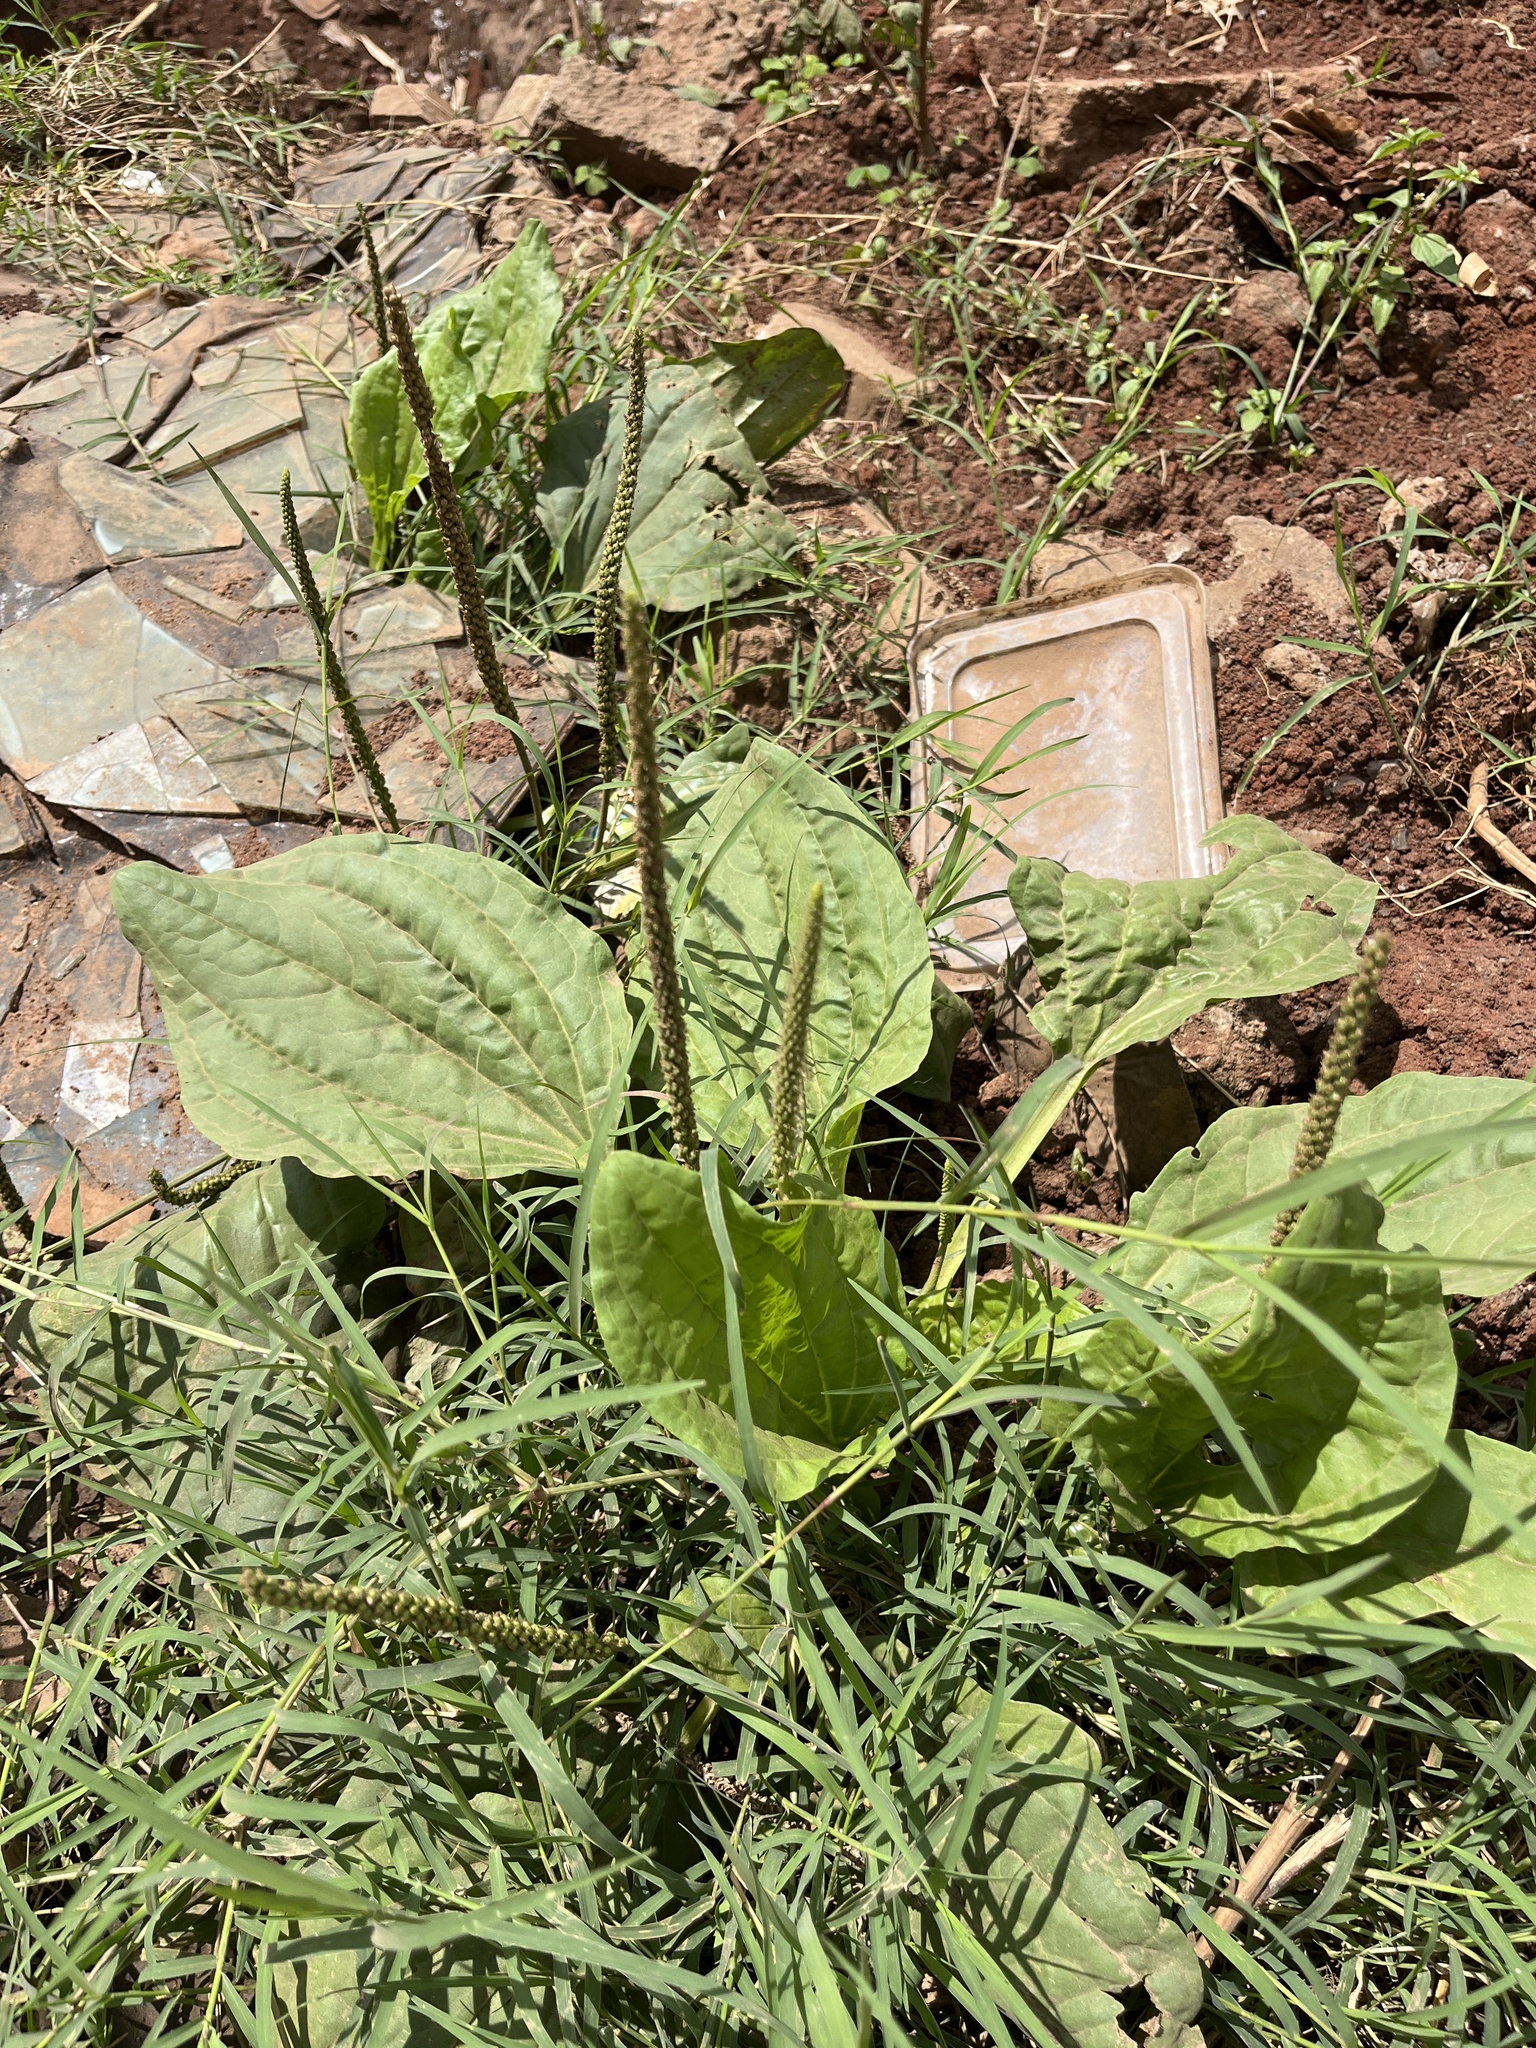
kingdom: Plantae
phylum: Tracheophyta
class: Magnoliopsida
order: Lamiales
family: Plantaginaceae
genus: Plantago
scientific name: Plantago major
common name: Common plantain
